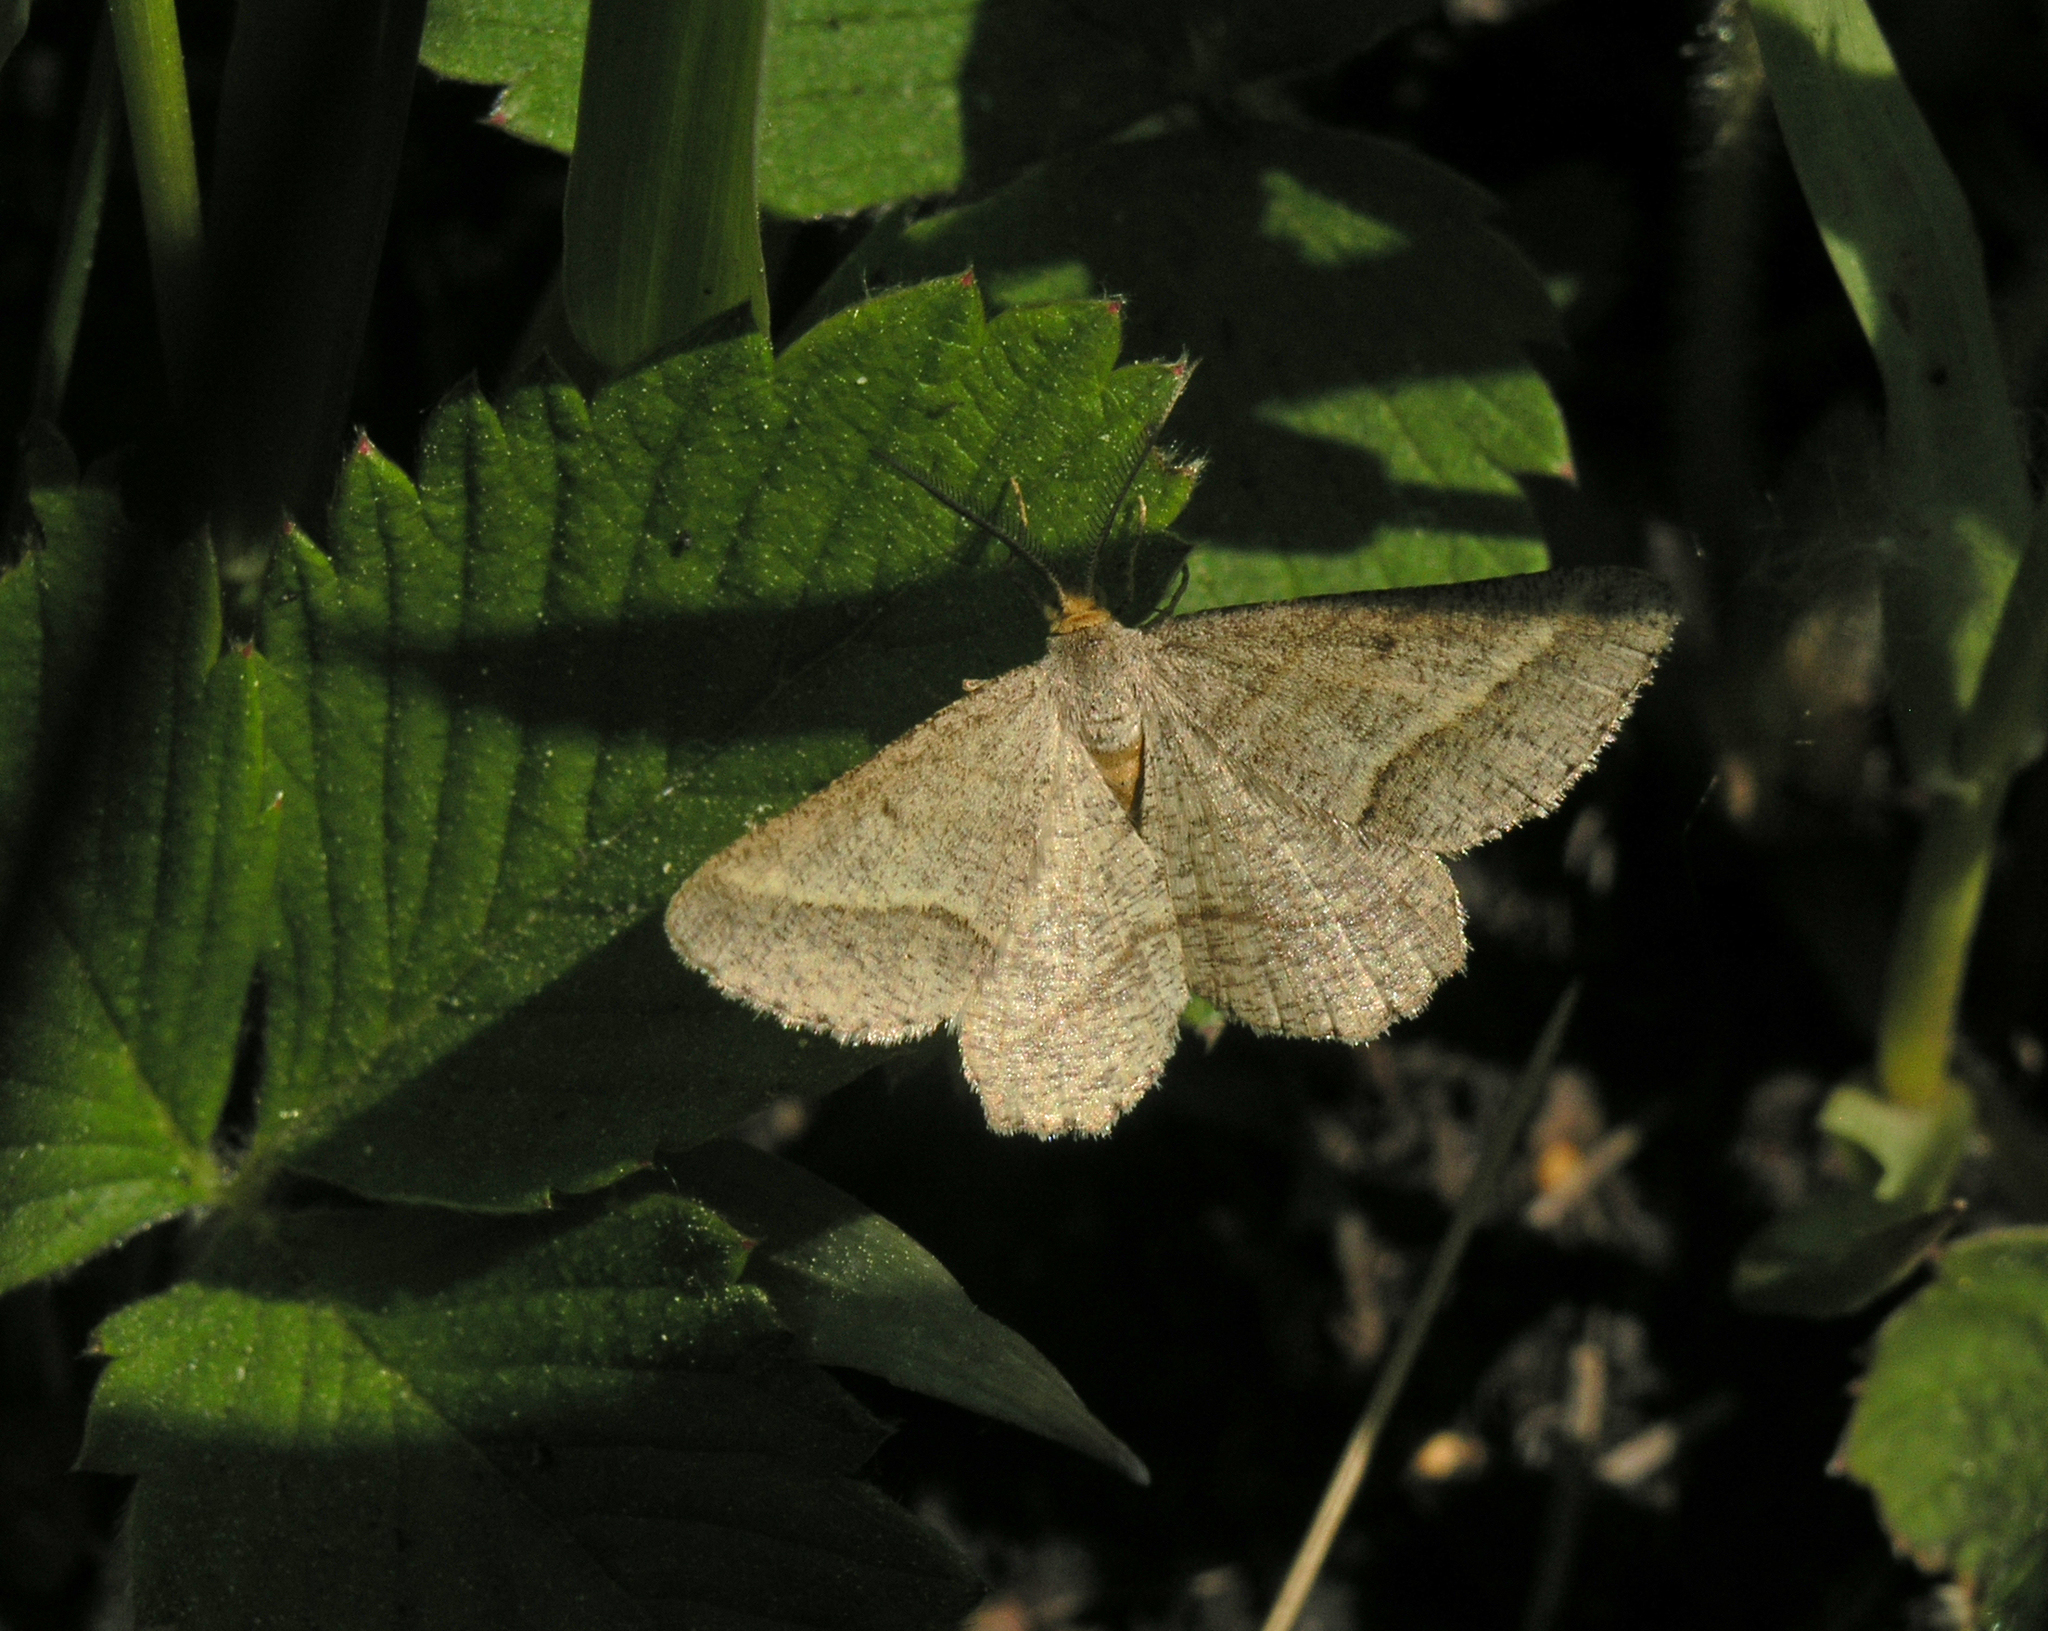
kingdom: Animalia
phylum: Arthropoda
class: Insecta
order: Lepidoptera
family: Geometridae
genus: Tephrina
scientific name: Tephrina arenacearia
